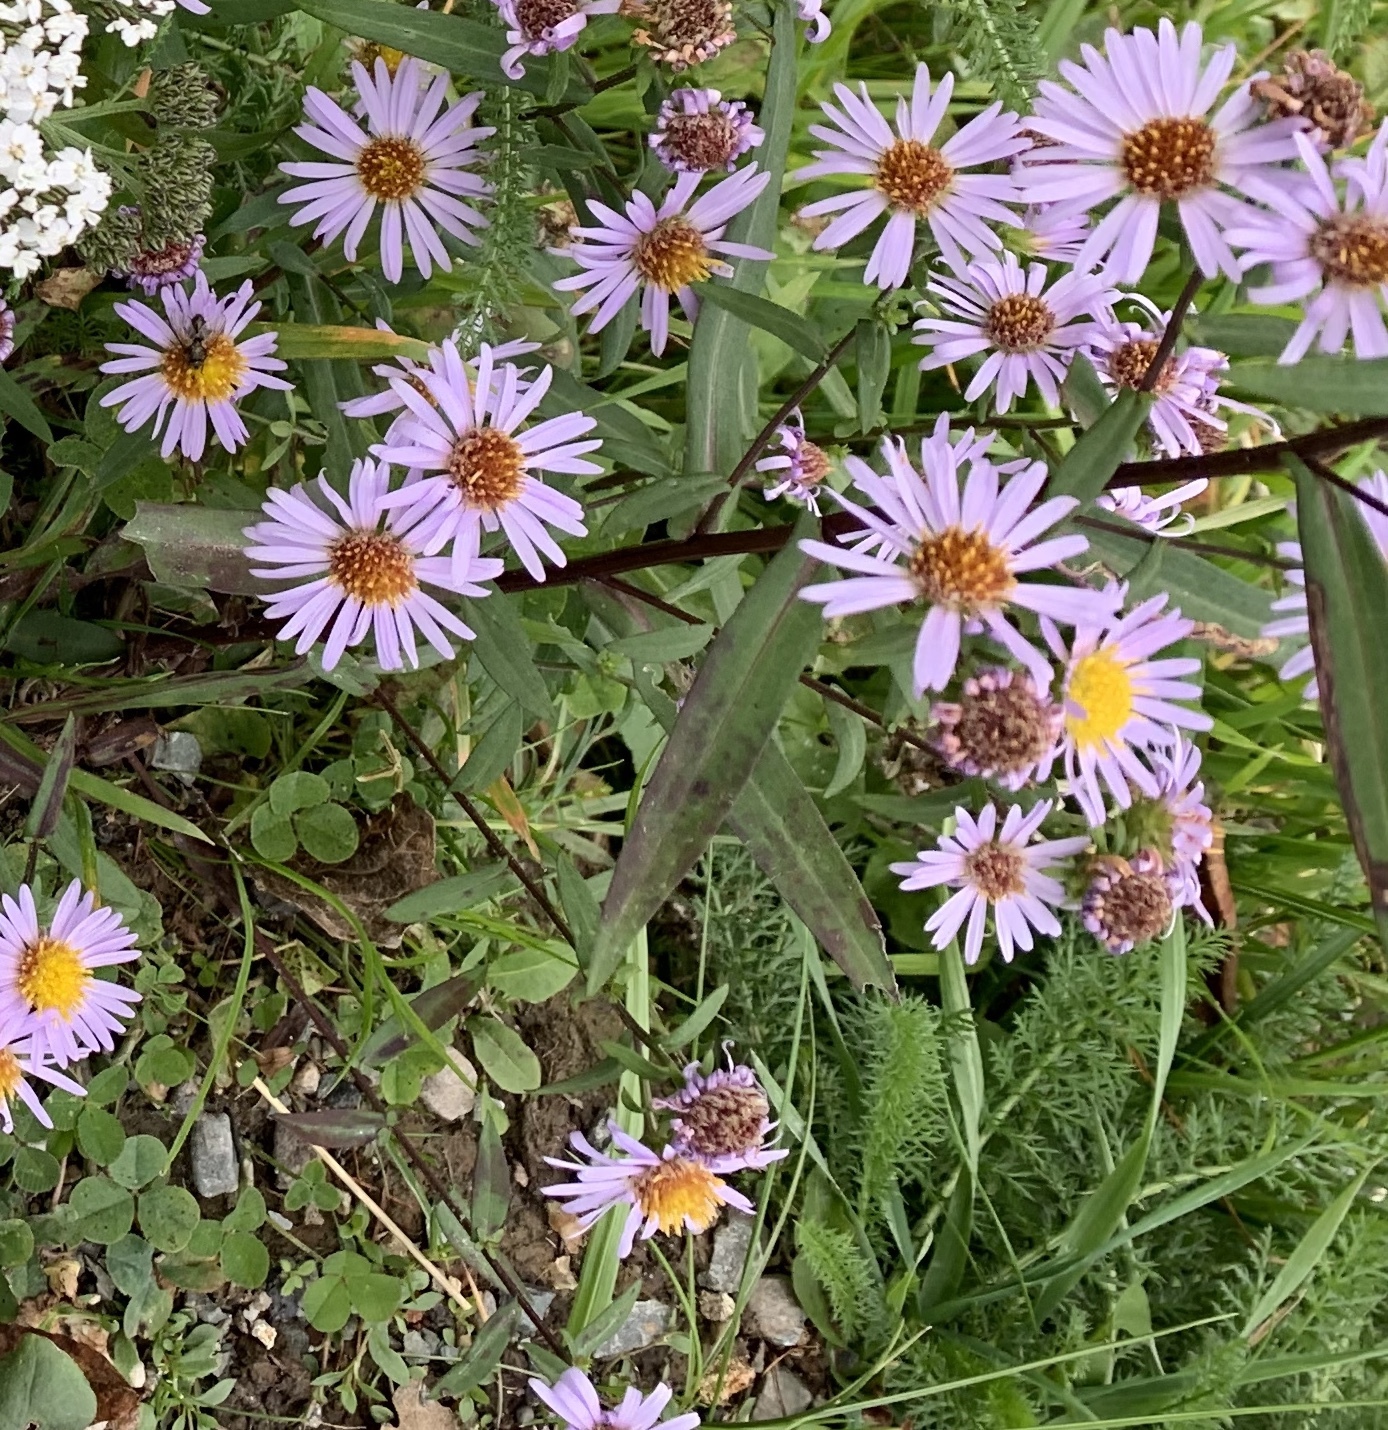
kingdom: Plantae
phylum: Tracheophyta
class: Magnoliopsida
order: Asterales
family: Asteraceae
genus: Symphyotrichum
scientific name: Symphyotrichum novi-belgii
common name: Michaelmas daisy
